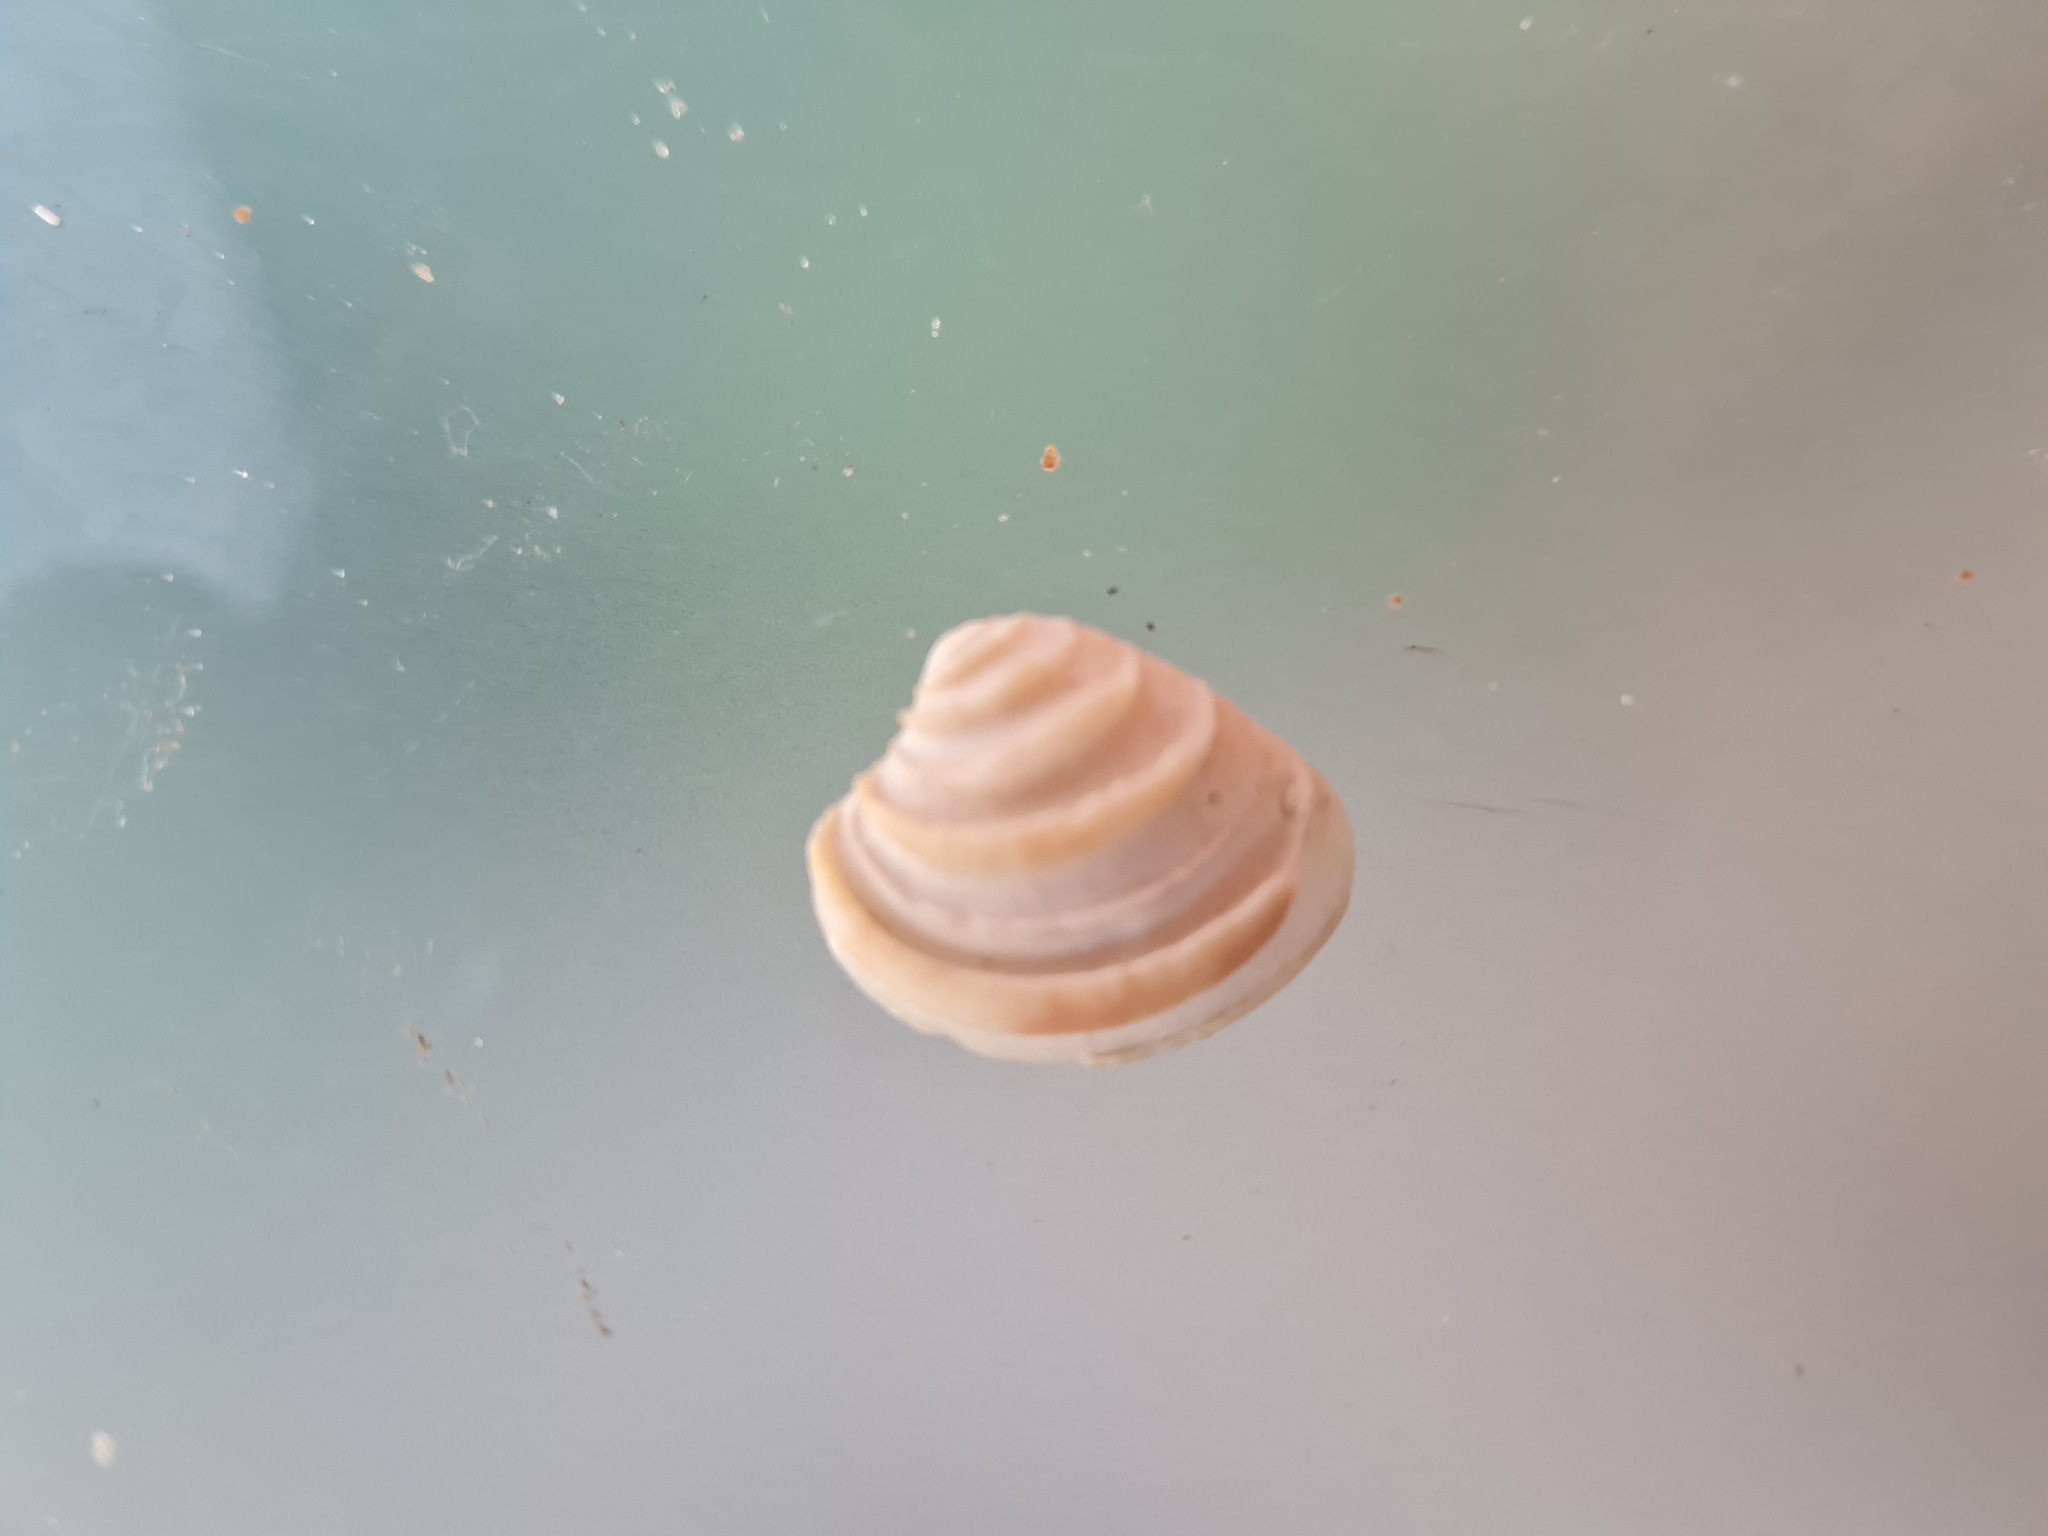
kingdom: Animalia
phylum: Mollusca
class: Bivalvia
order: Venerida
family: Veneridae
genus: Lirophora
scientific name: Lirophora paphia
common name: King venus
